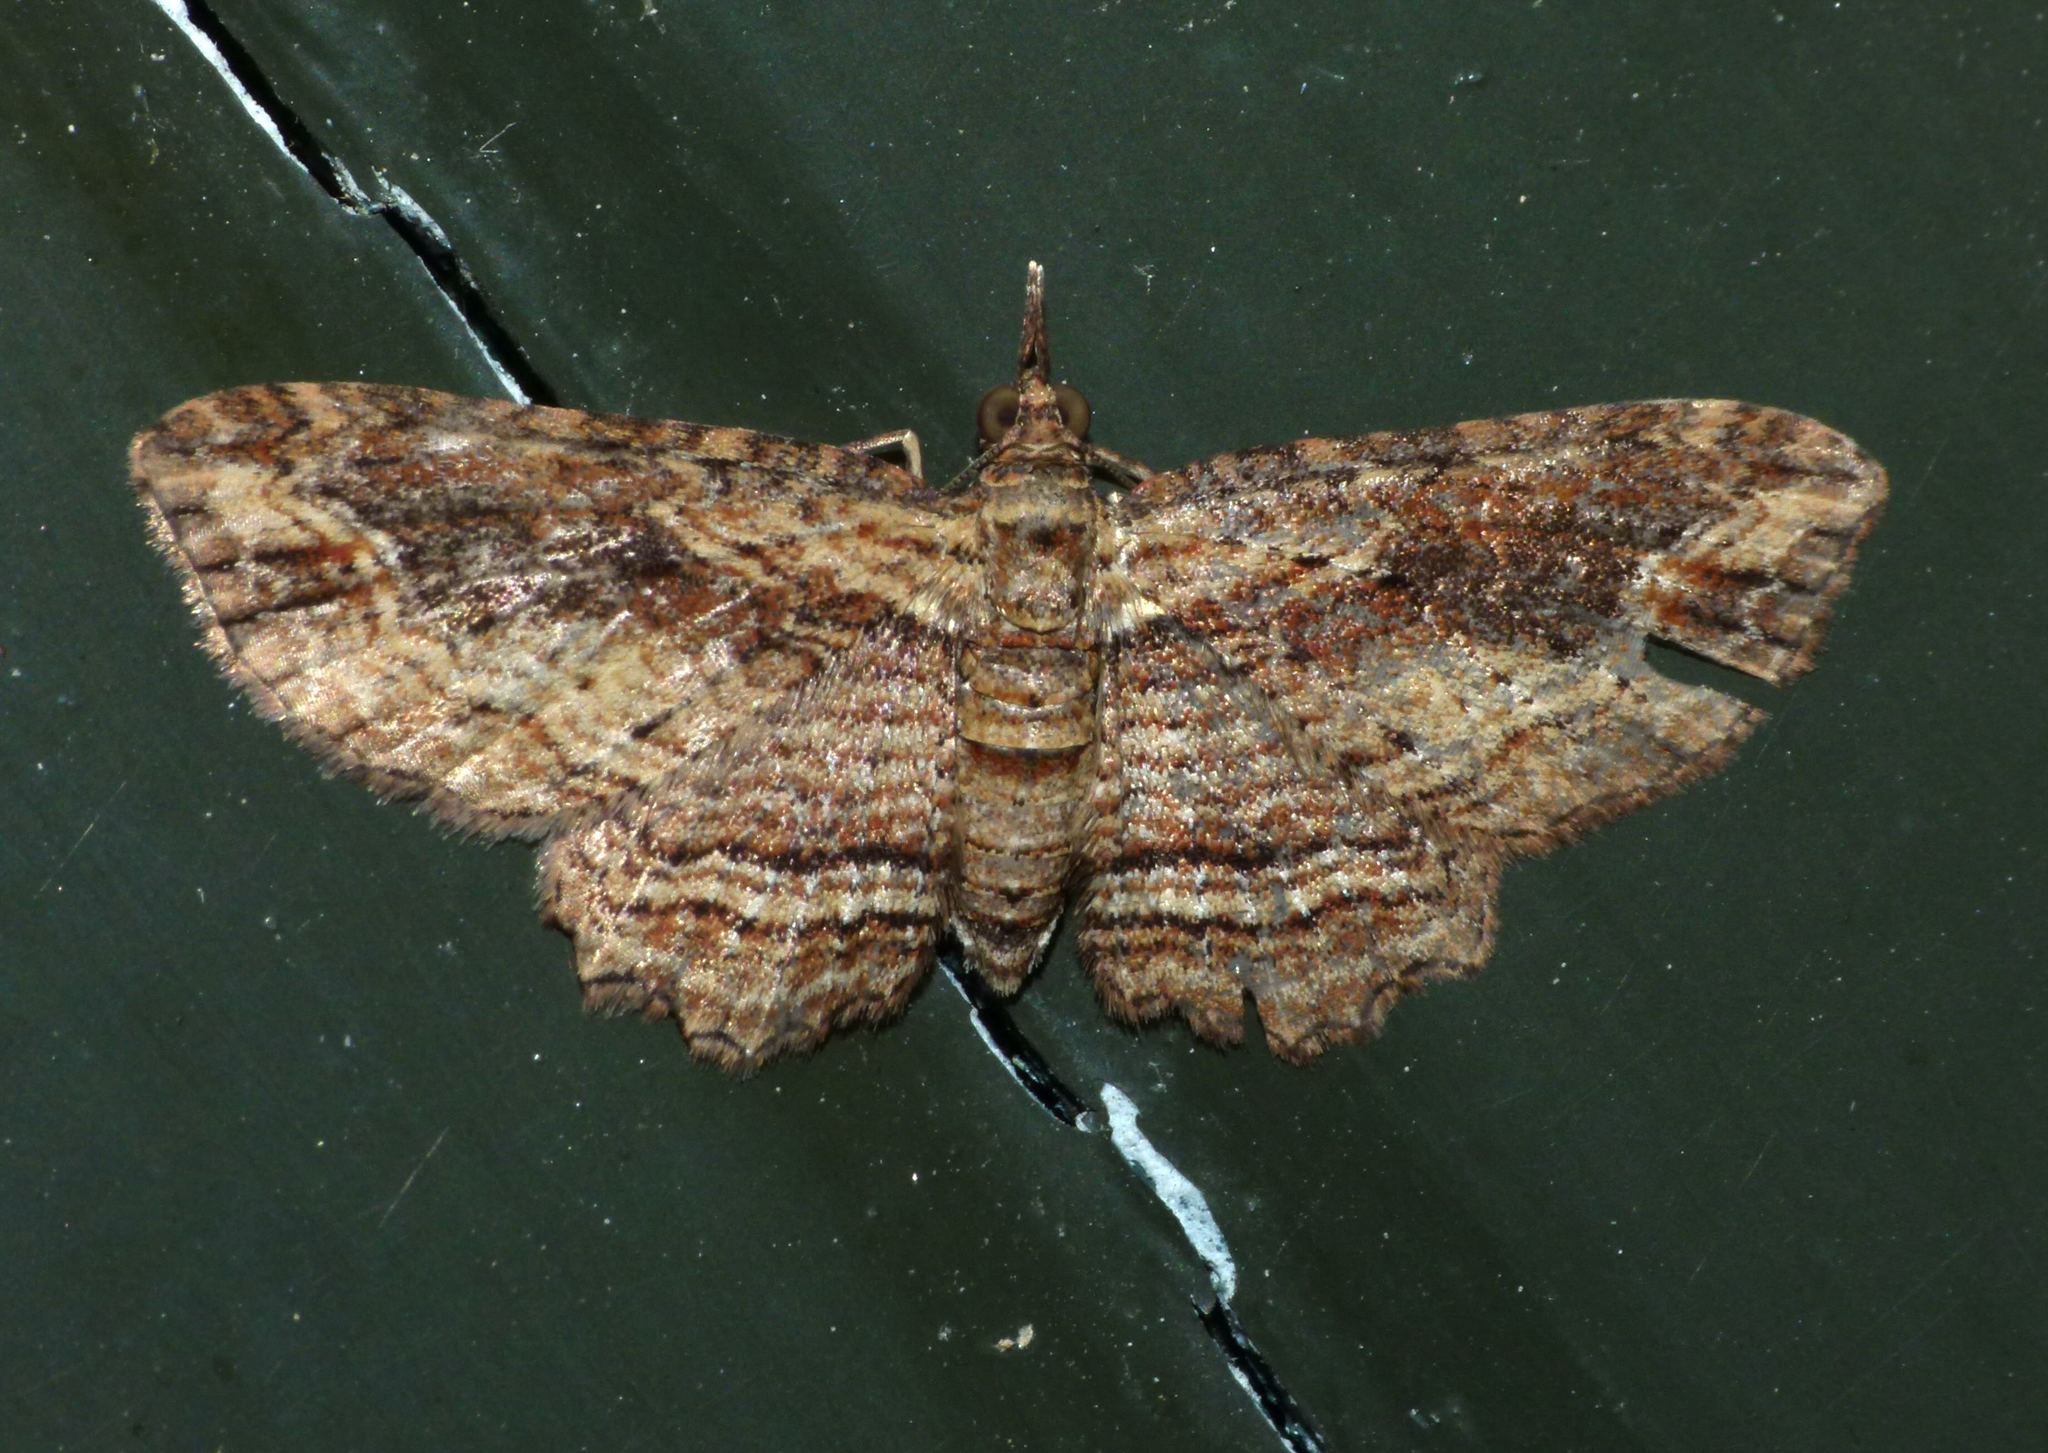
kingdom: Animalia
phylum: Arthropoda
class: Insecta
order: Lepidoptera
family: Geometridae
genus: Chloroclystis
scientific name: Chloroclystis filata
